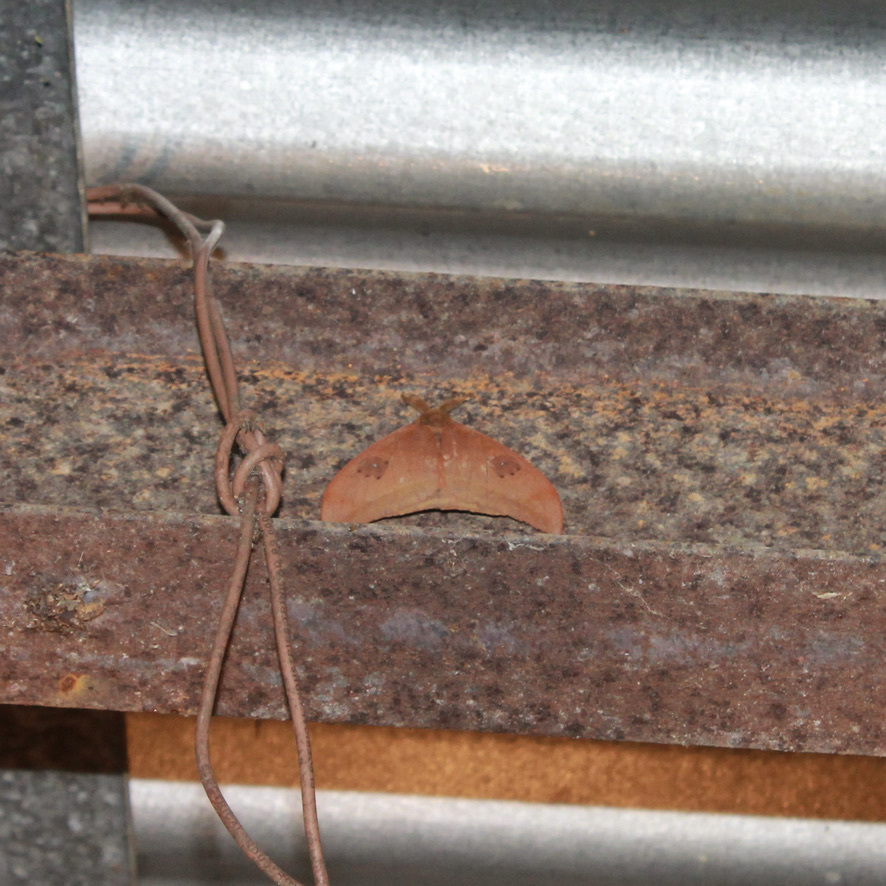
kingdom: Animalia
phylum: Arthropoda
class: Insecta
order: Lepidoptera
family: Saturniidae
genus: Automeris
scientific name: Automeris midea
